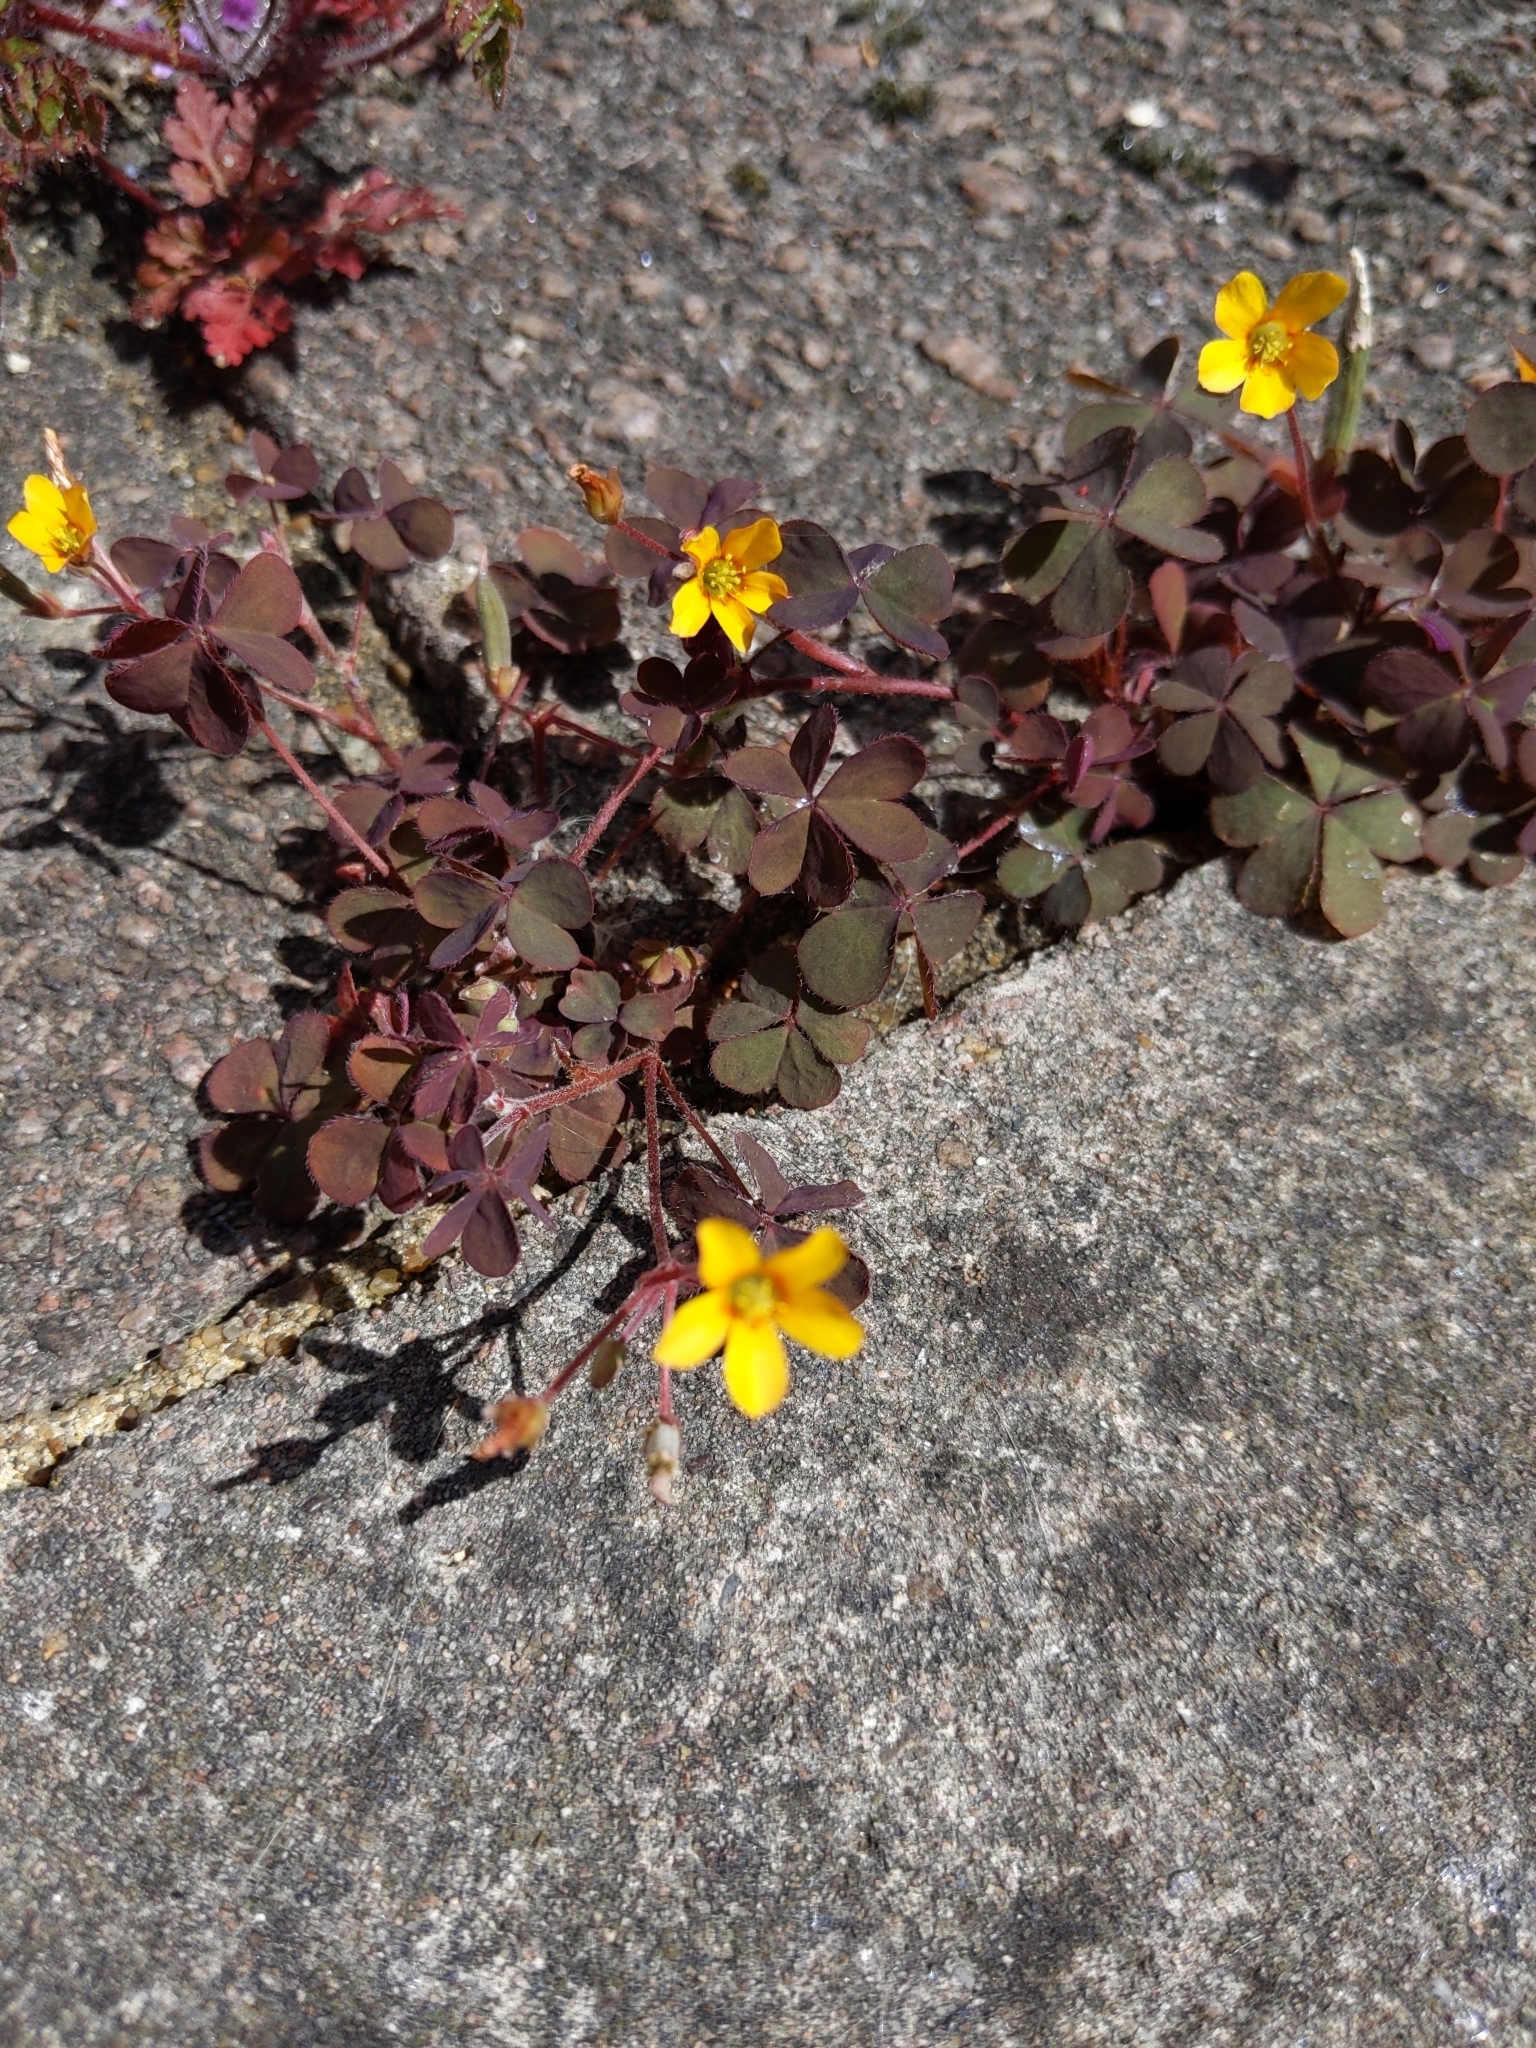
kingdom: Plantae
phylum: Tracheophyta
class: Magnoliopsida
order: Oxalidales
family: Oxalidaceae
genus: Oxalis
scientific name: Oxalis corniculata
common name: Procumbent yellow-sorrel
